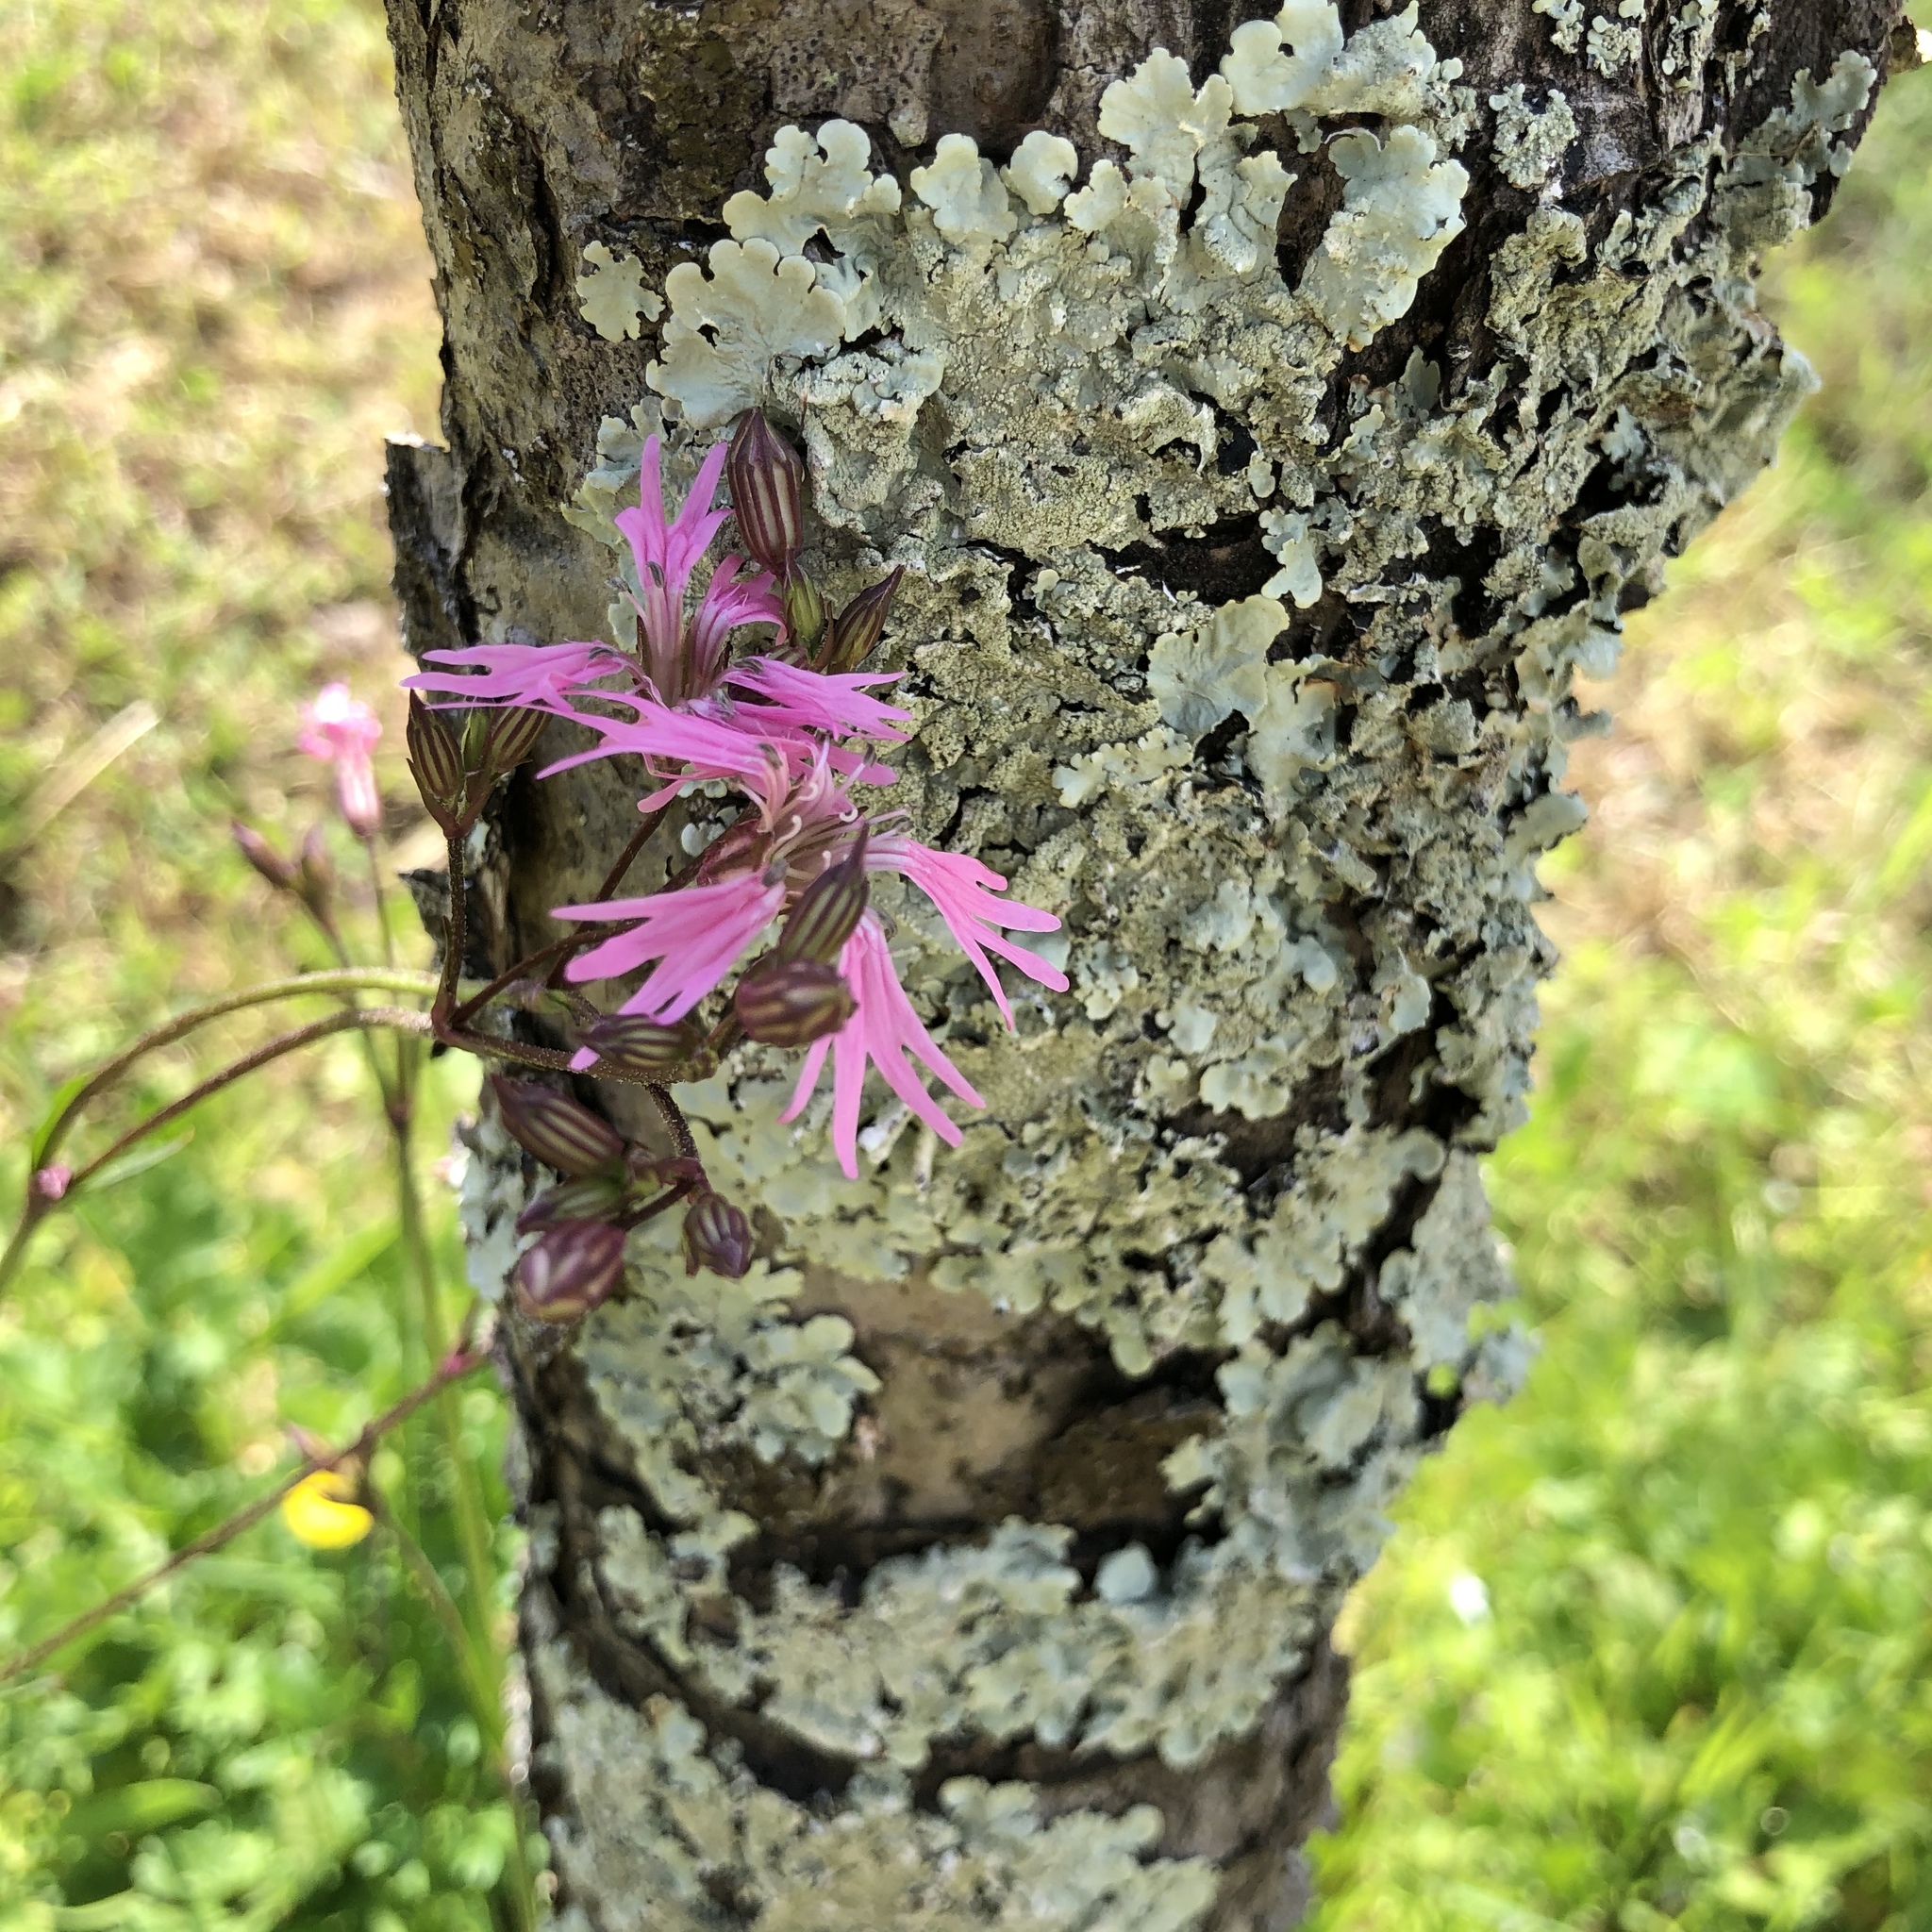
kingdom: Plantae
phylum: Tracheophyta
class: Magnoliopsida
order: Caryophyllales
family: Caryophyllaceae
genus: Silene
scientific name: Silene flos-cuculi
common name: Ragged-robin
